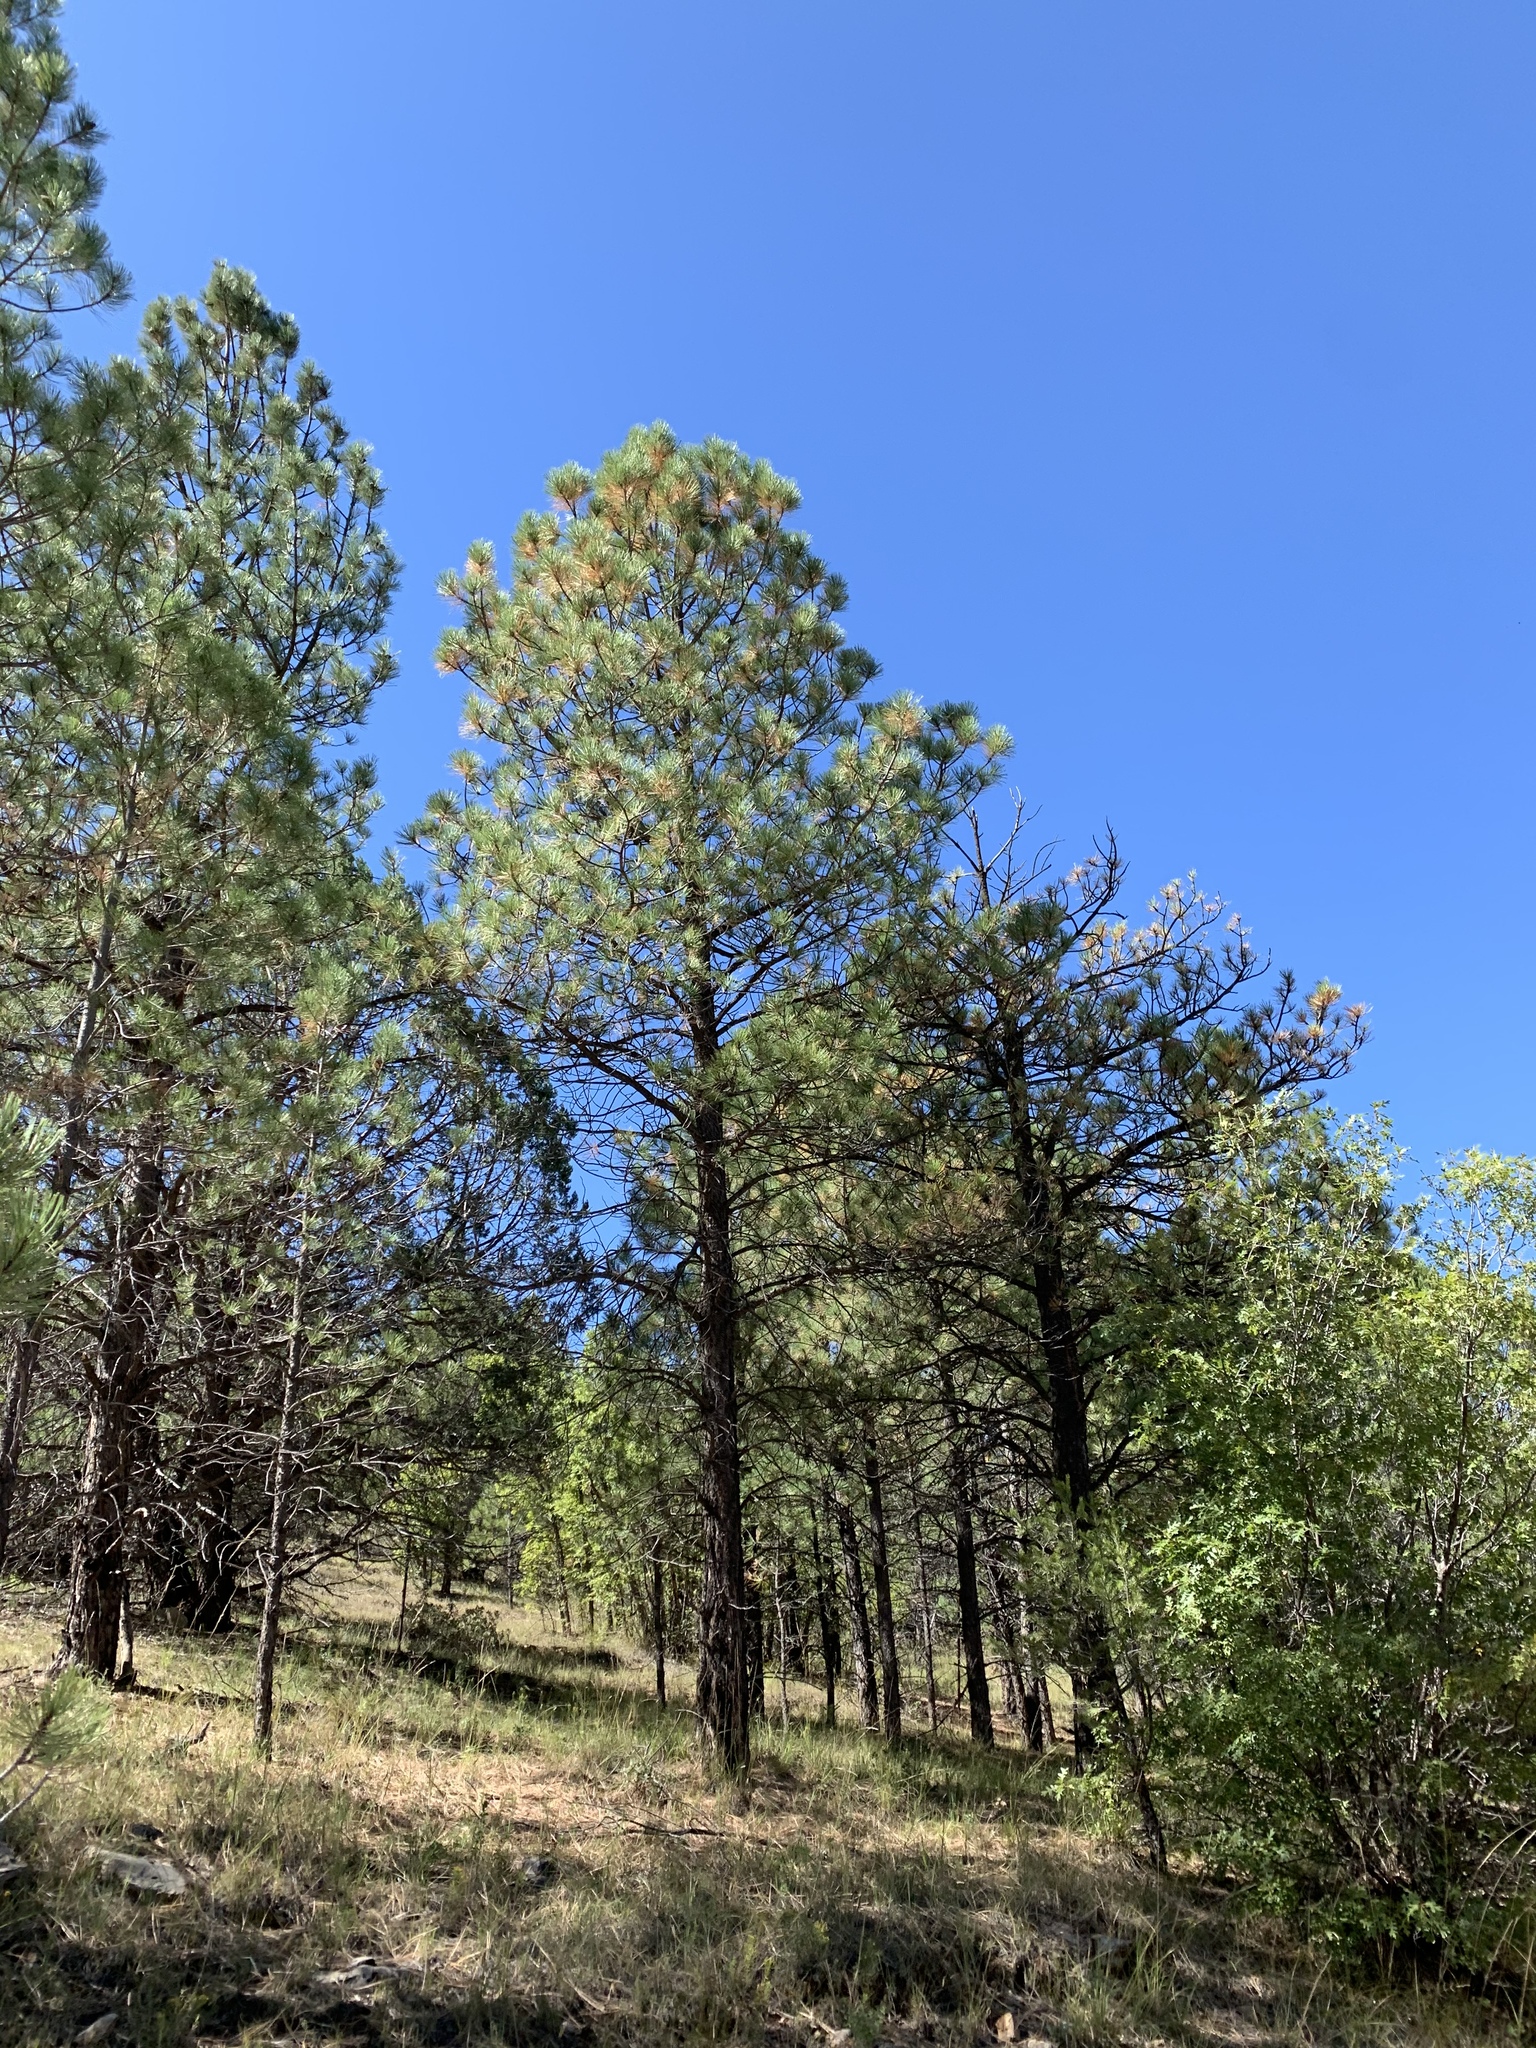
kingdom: Plantae
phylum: Tracheophyta
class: Pinopsida
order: Pinales
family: Pinaceae
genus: Pinus
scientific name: Pinus ponderosa
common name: Western yellow-pine
